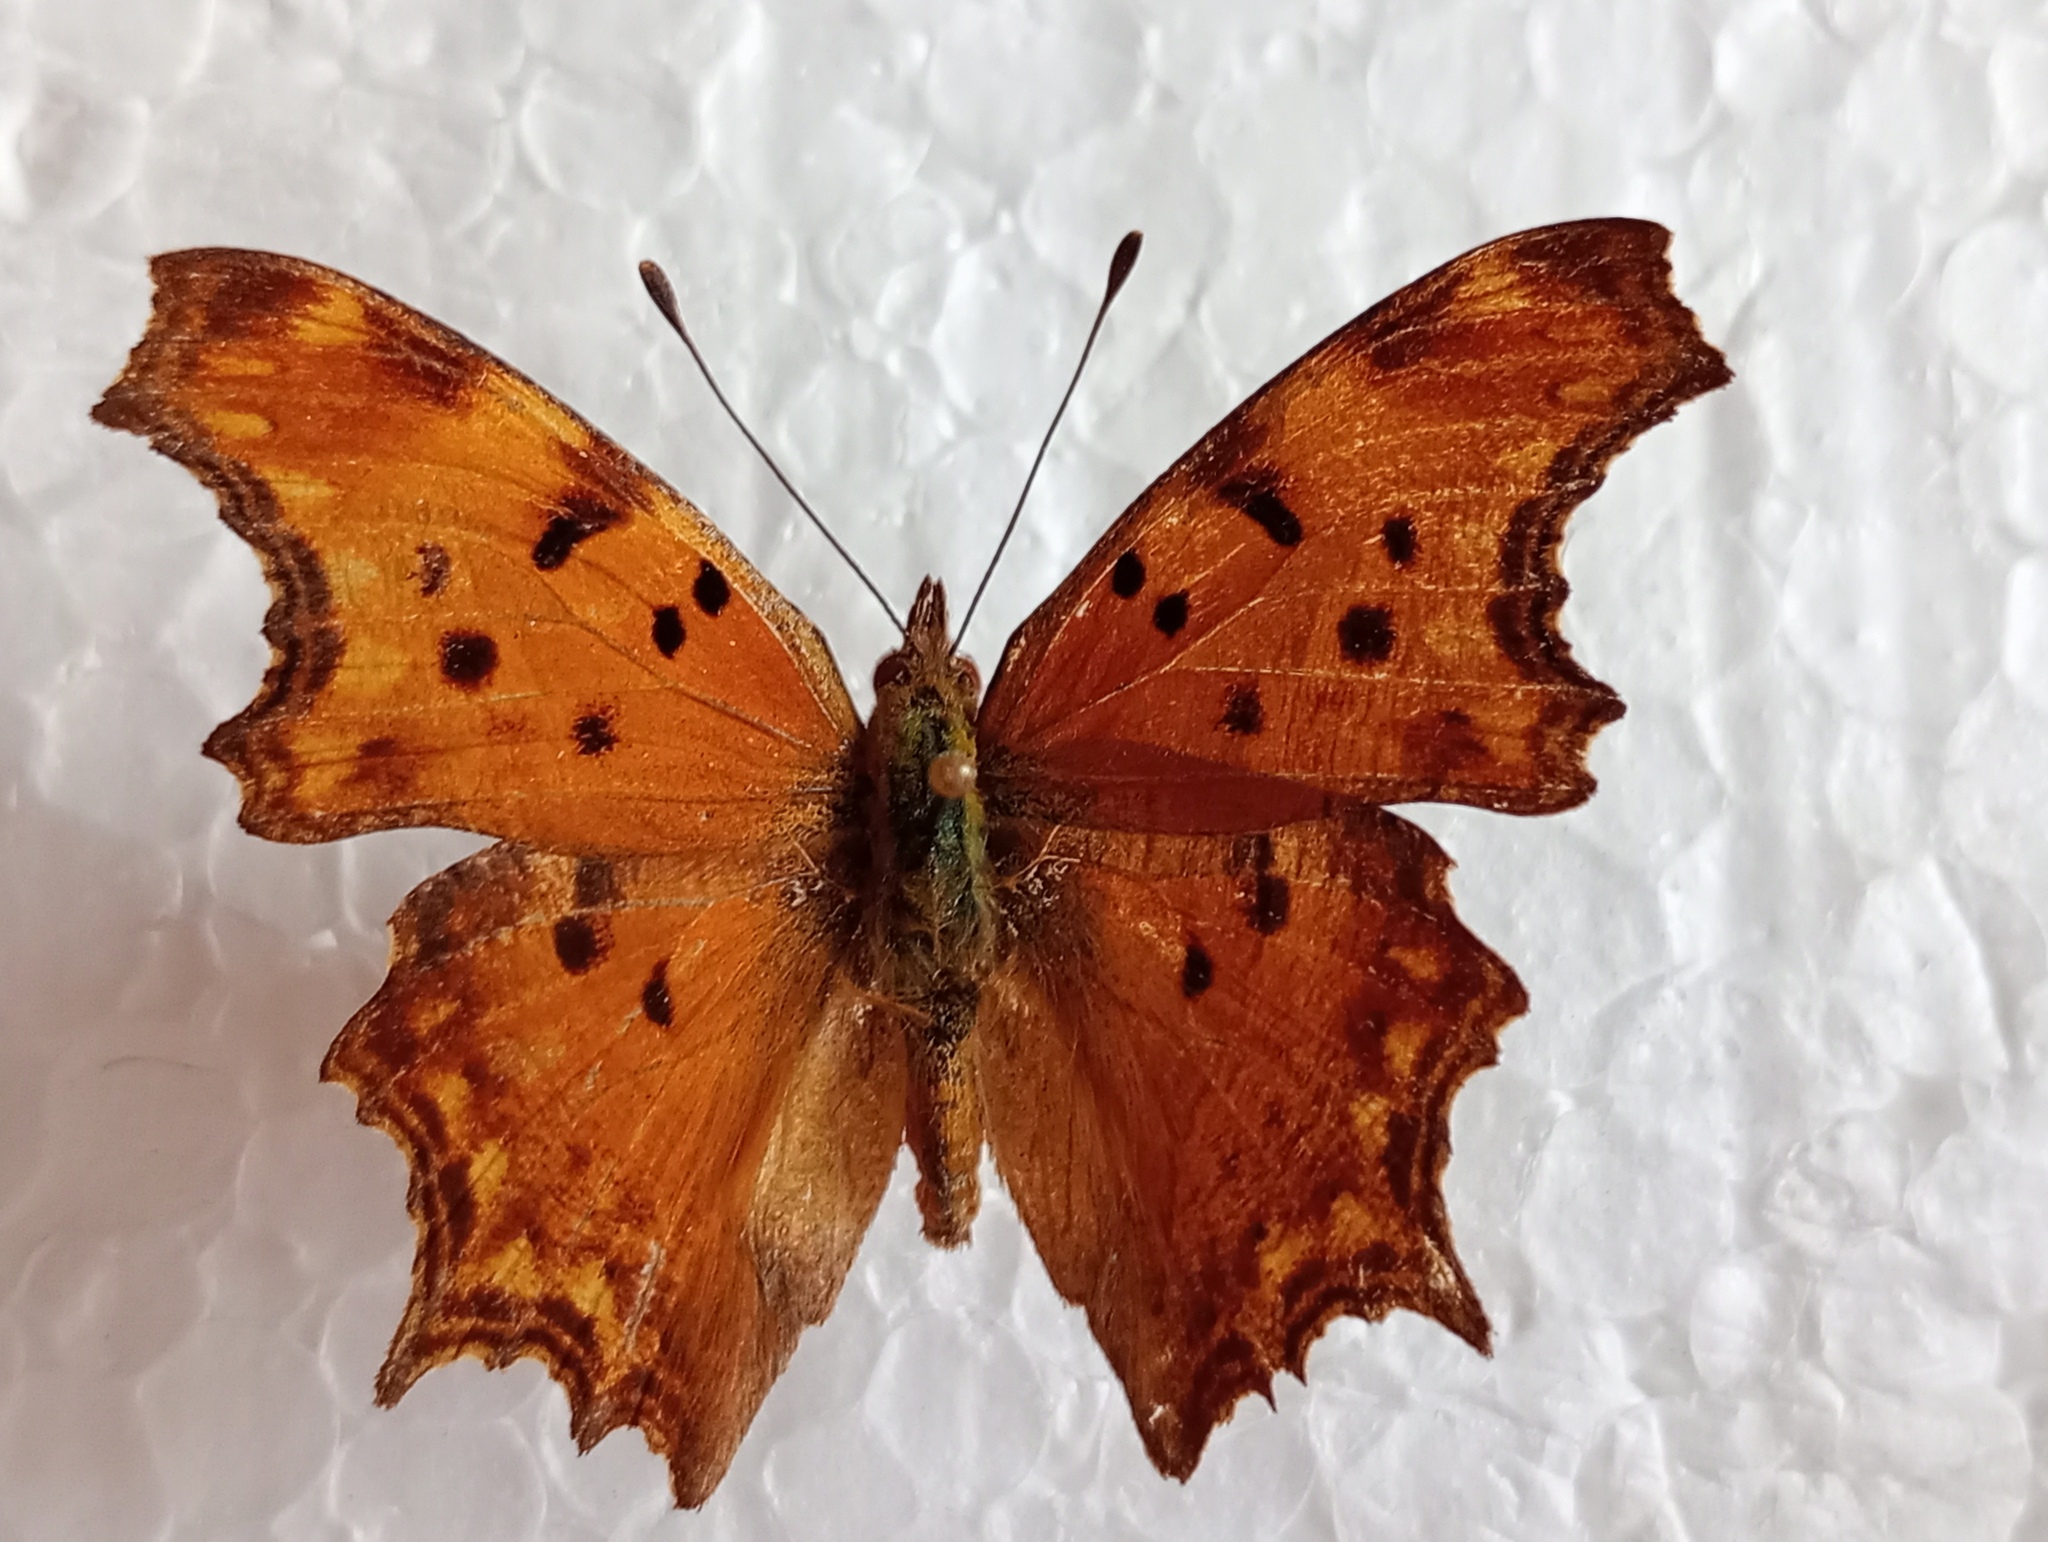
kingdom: Animalia
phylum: Arthropoda
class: Insecta
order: Lepidoptera
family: Nymphalidae
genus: Polygonia
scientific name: Polygonia egea
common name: Southern comma
